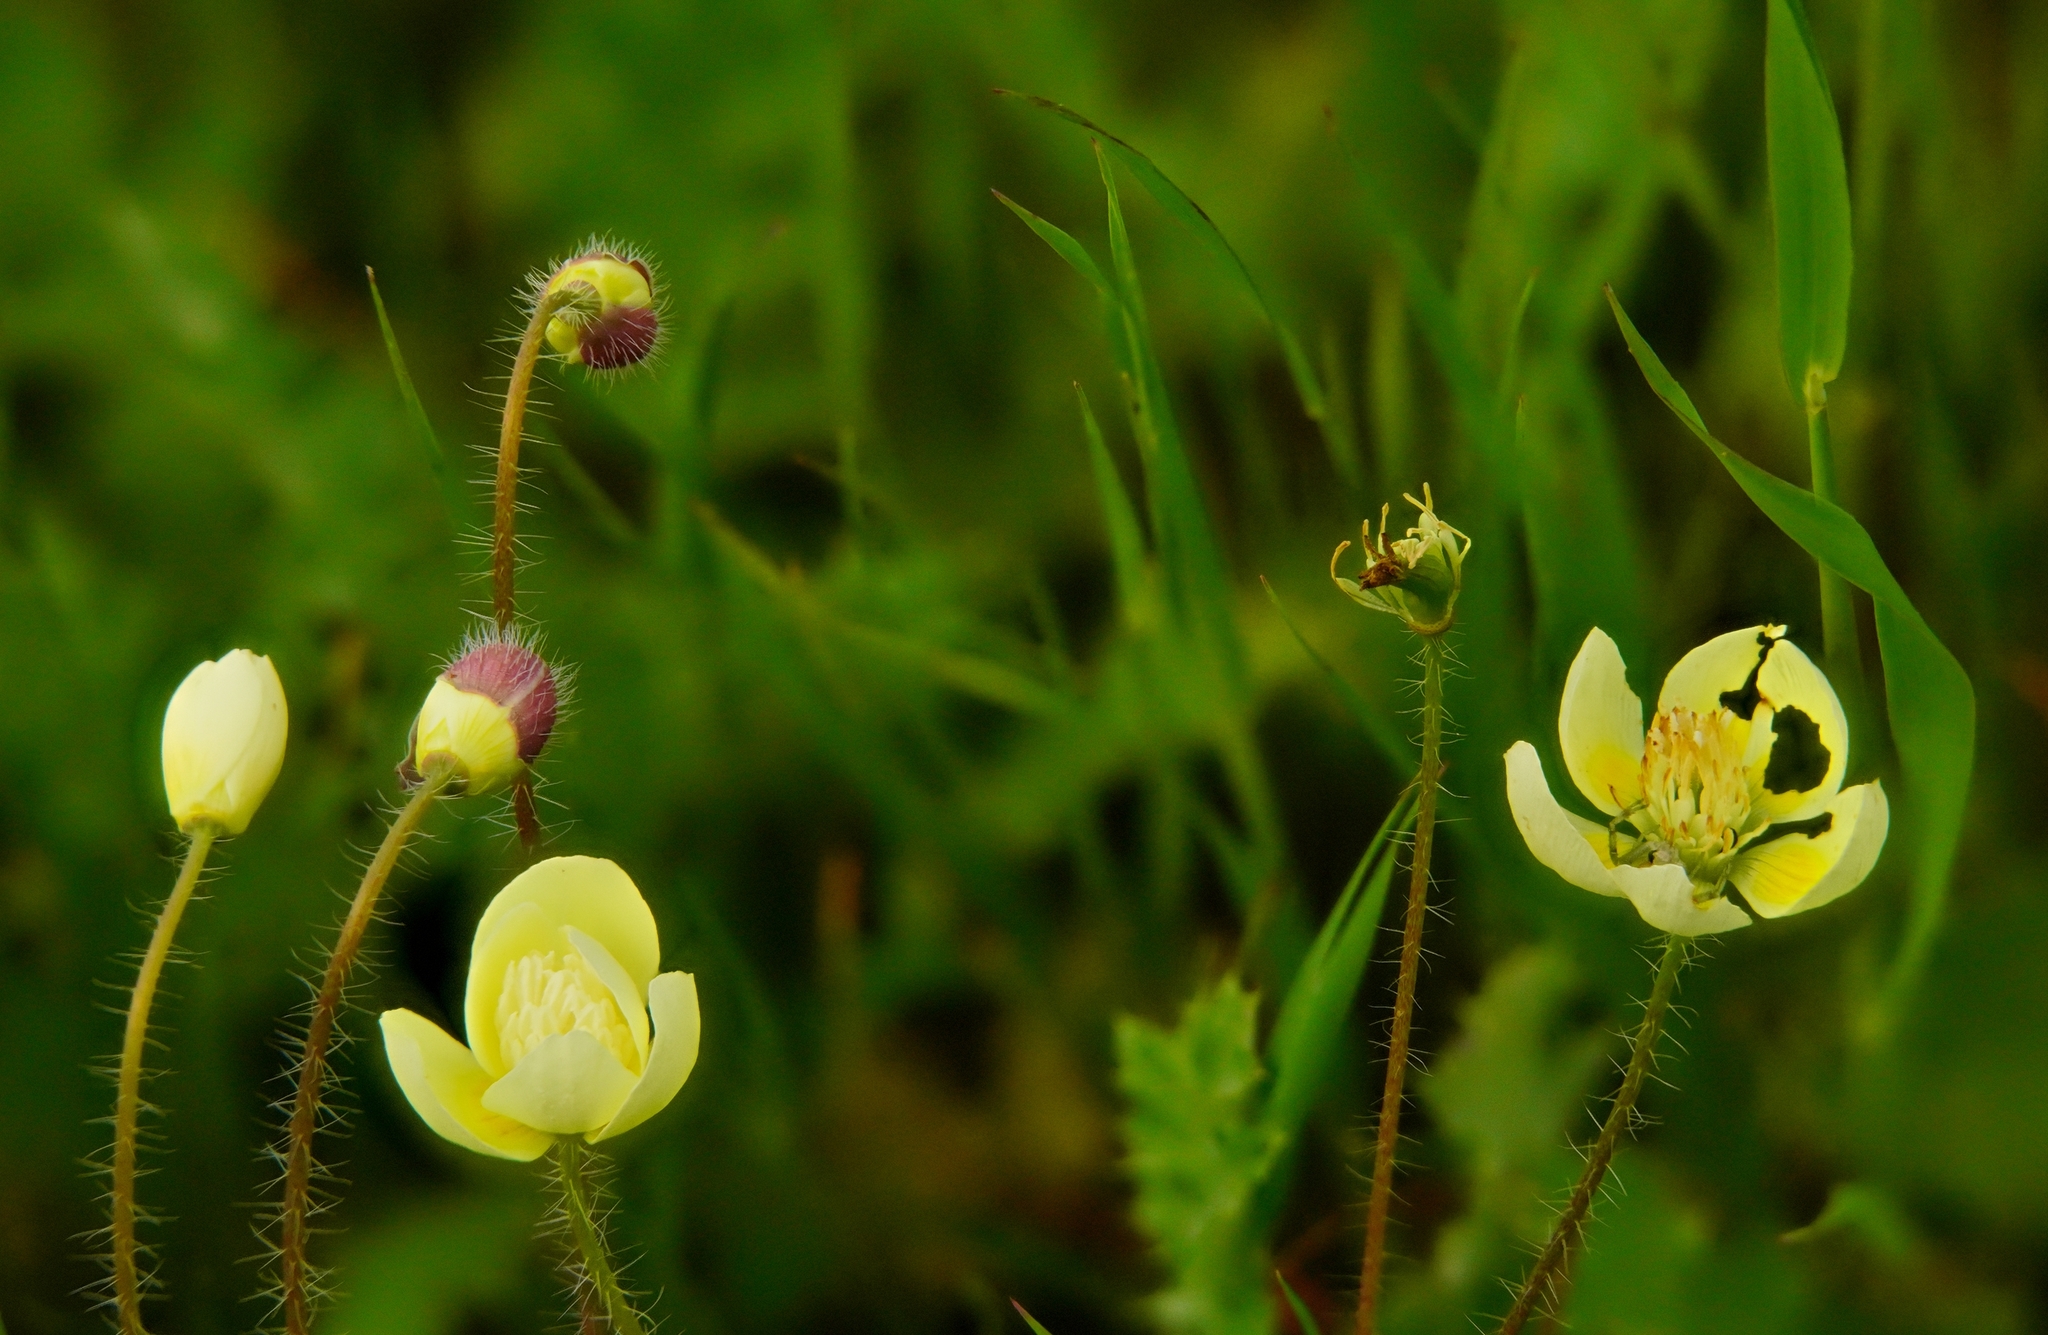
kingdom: Plantae
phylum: Tracheophyta
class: Magnoliopsida
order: Ranunculales
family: Papaveraceae
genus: Platystemon
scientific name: Platystemon californicus
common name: Cream-cups
